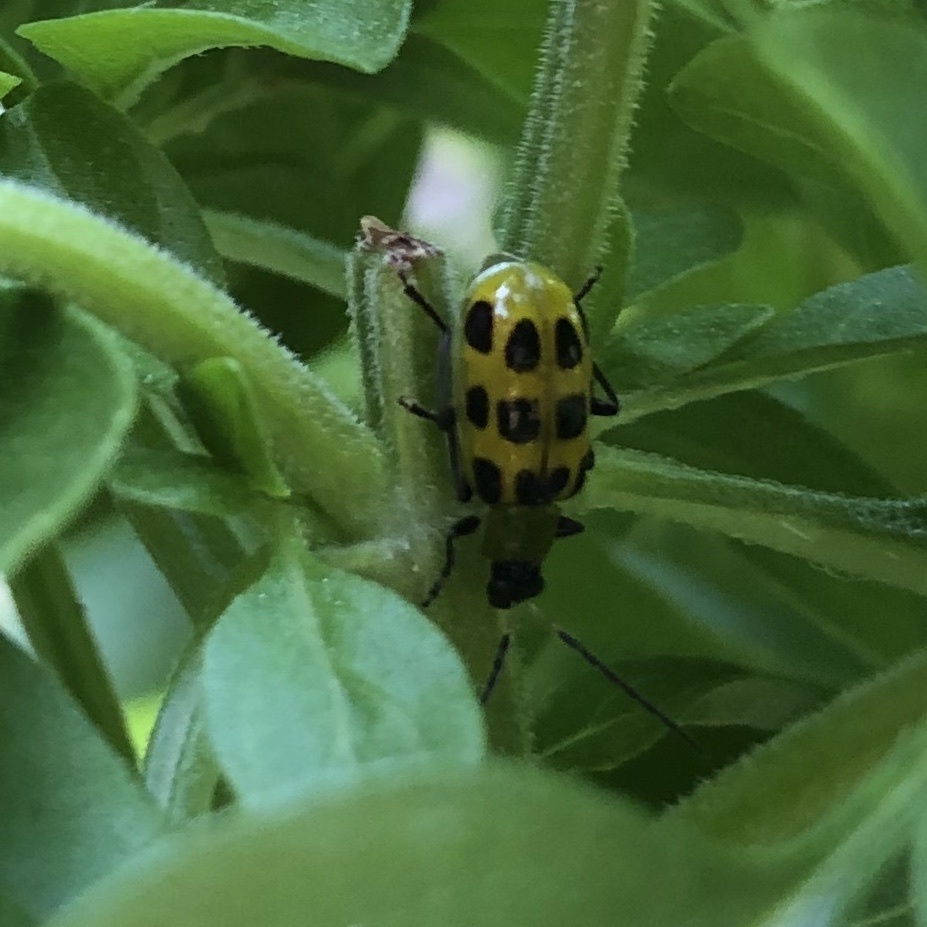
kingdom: Animalia
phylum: Arthropoda
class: Insecta
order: Coleoptera
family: Chrysomelidae
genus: Diabrotica
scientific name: Diabrotica undecimpunctata
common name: Spotted cucumber beetle
